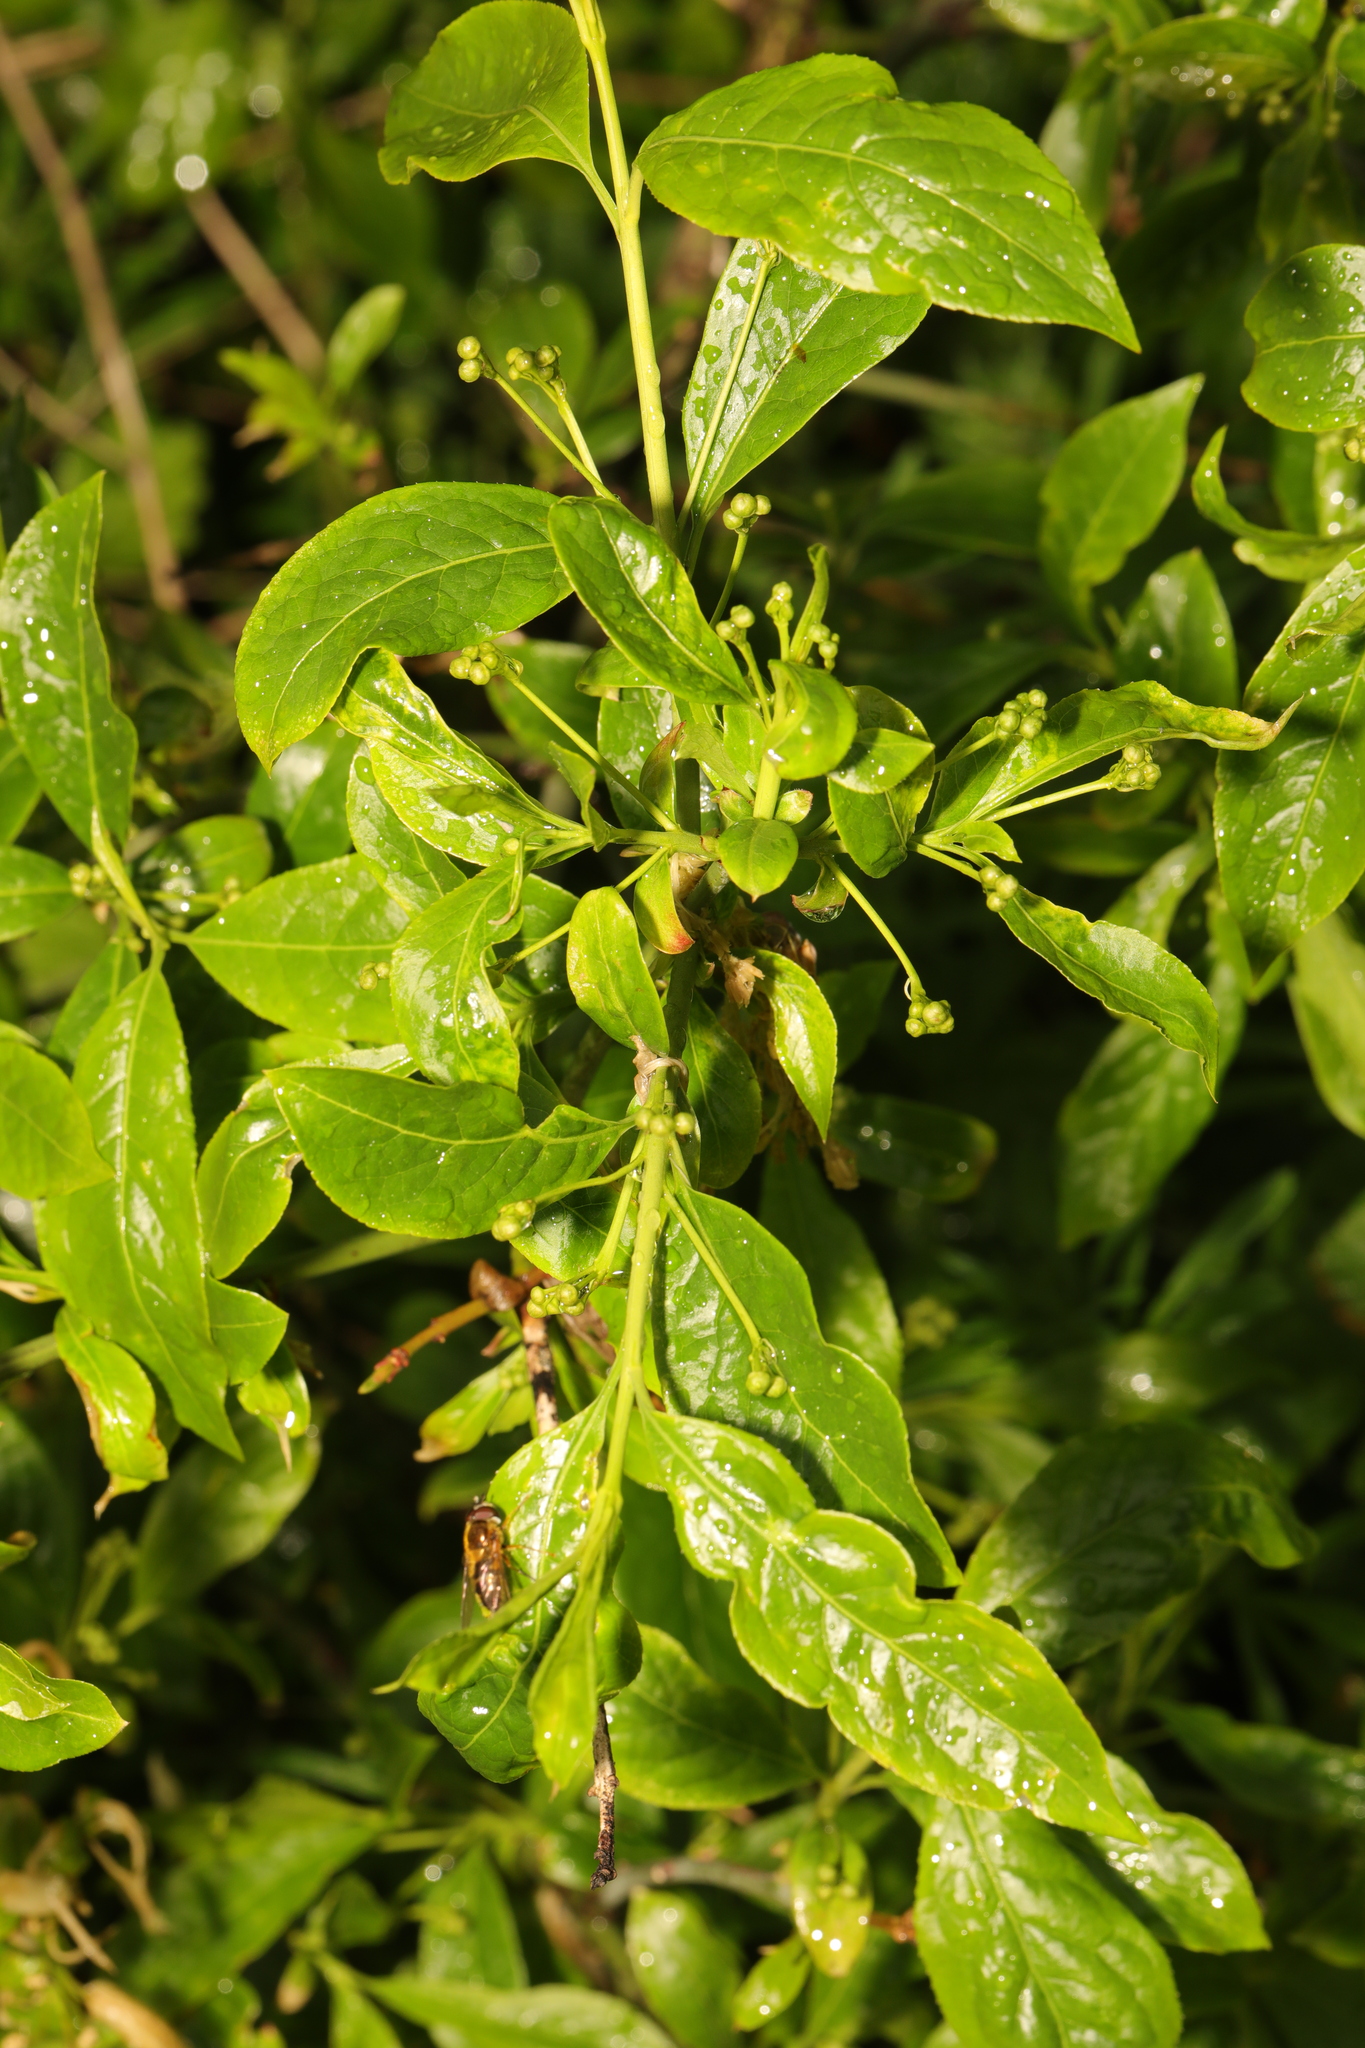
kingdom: Plantae
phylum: Tracheophyta
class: Magnoliopsida
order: Celastrales
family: Celastraceae
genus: Euonymus
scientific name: Euonymus europaeus
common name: Spindle
